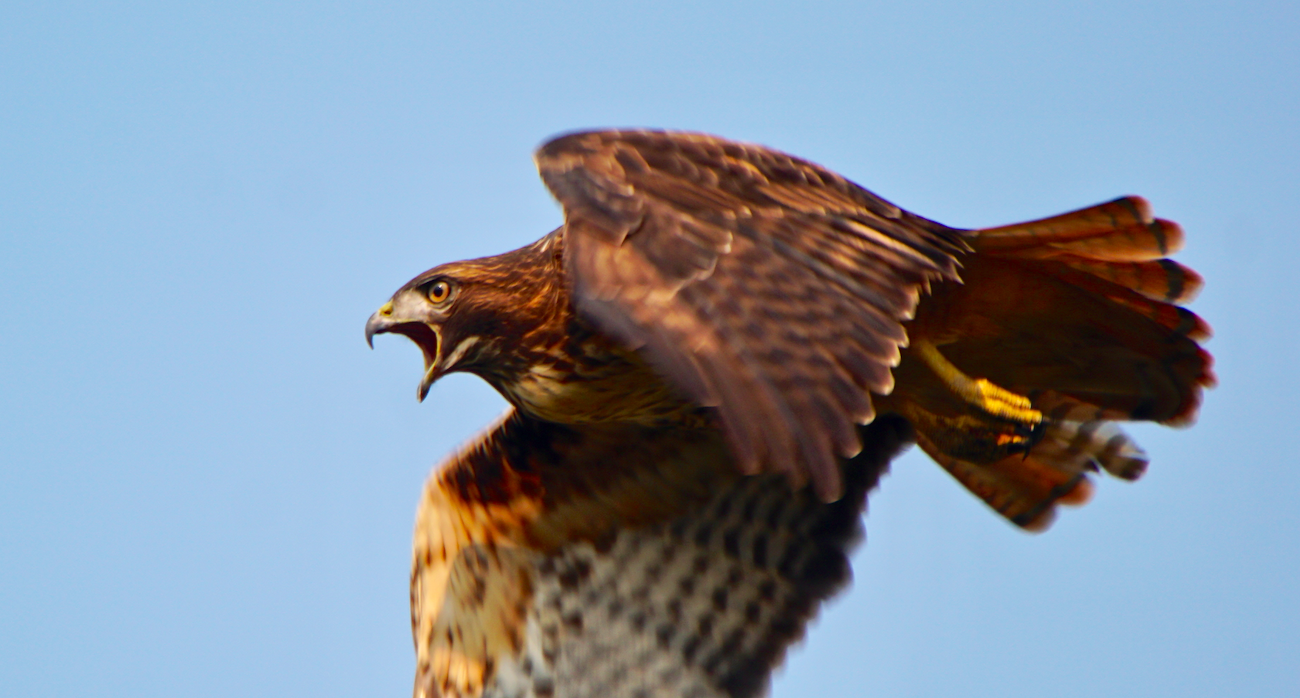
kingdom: Animalia
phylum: Chordata
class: Aves
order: Accipitriformes
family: Accipitridae
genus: Buteo
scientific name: Buteo jamaicensis
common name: Red-tailed hawk
